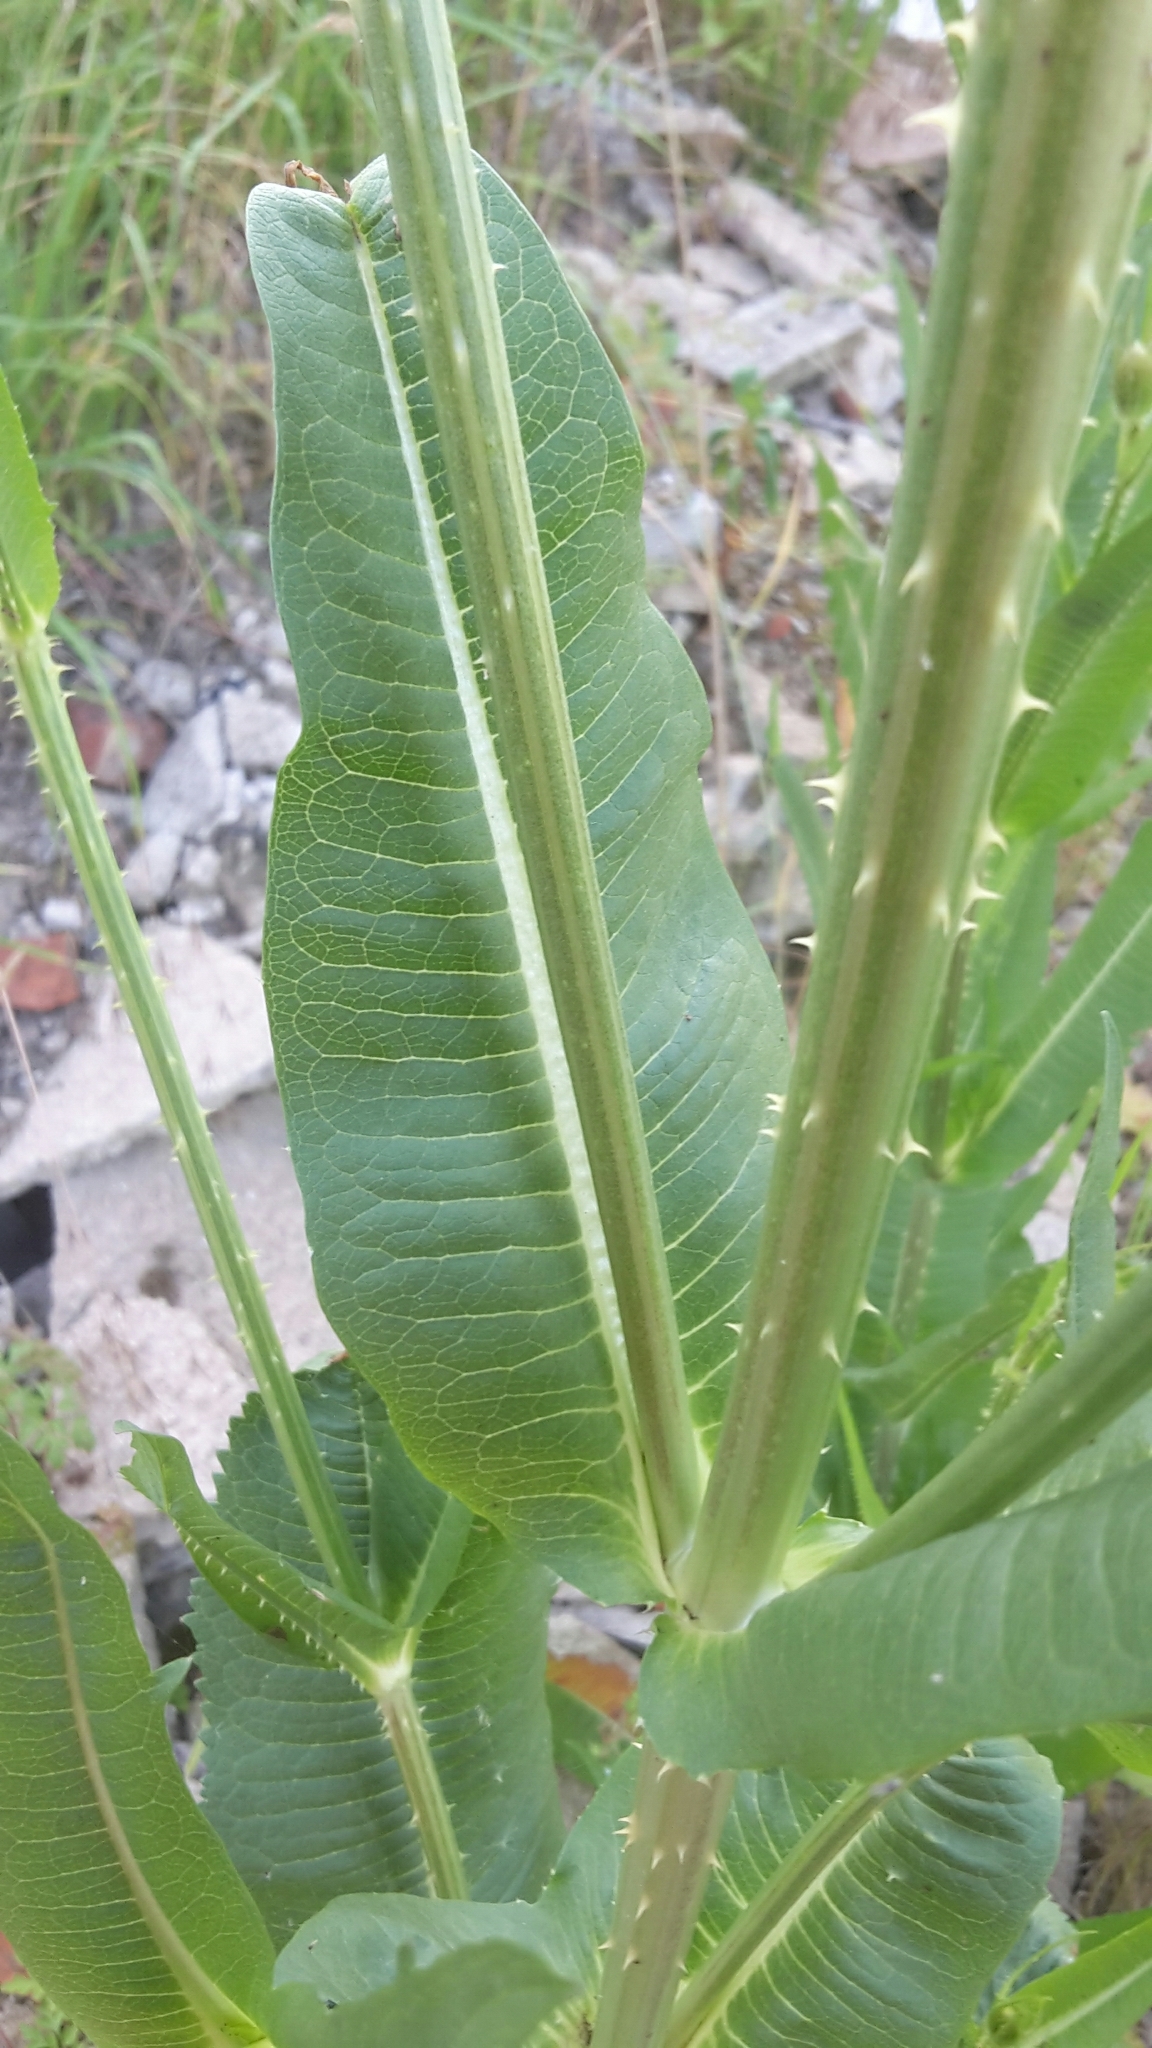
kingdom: Plantae
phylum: Tracheophyta
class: Magnoliopsida
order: Dipsacales
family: Caprifoliaceae
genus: Dipsacus
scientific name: Dipsacus fullonum
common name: Teasel
